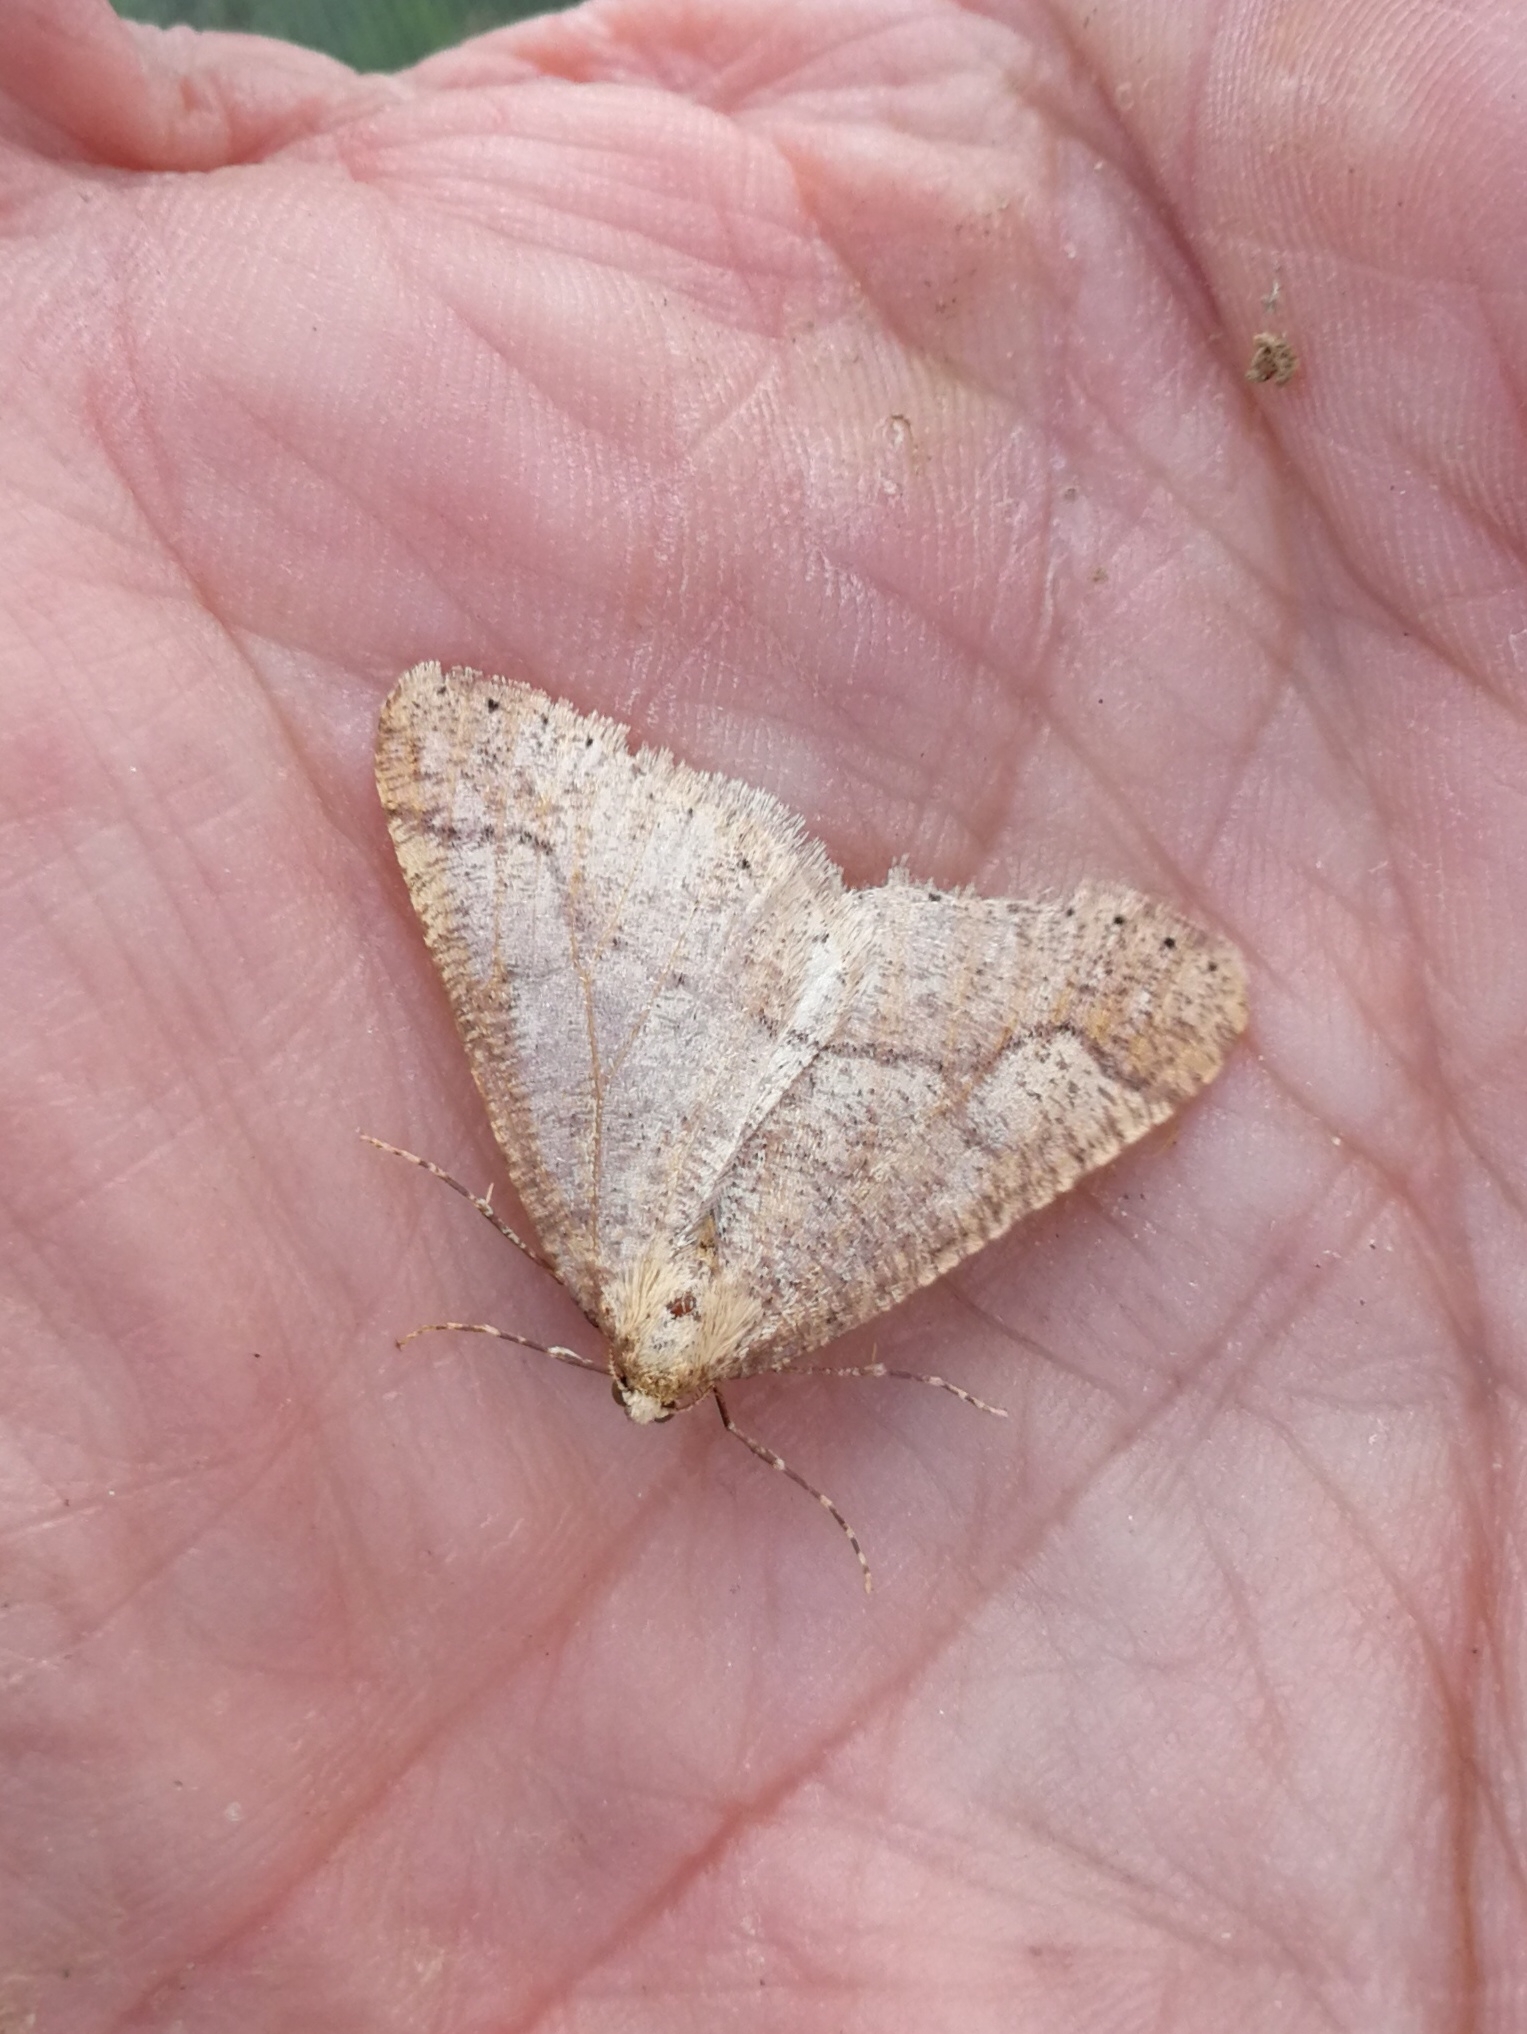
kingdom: Animalia
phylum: Arthropoda
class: Insecta
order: Lepidoptera
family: Geometridae
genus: Agriopis
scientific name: Agriopis marginaria
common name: Dotted border
